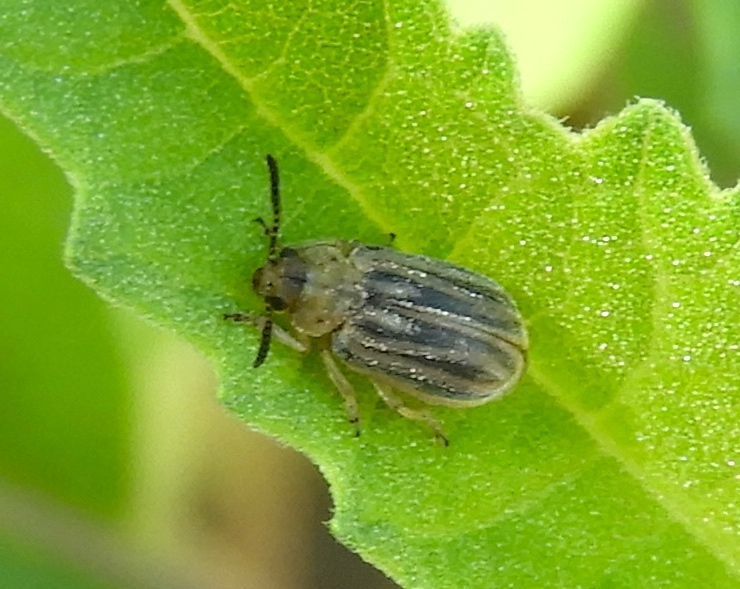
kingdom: Animalia
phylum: Arthropoda
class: Insecta
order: Coleoptera
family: Chrysomelidae
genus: Ophraella
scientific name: Ophraella communa
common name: Ragweed leaf beetle
